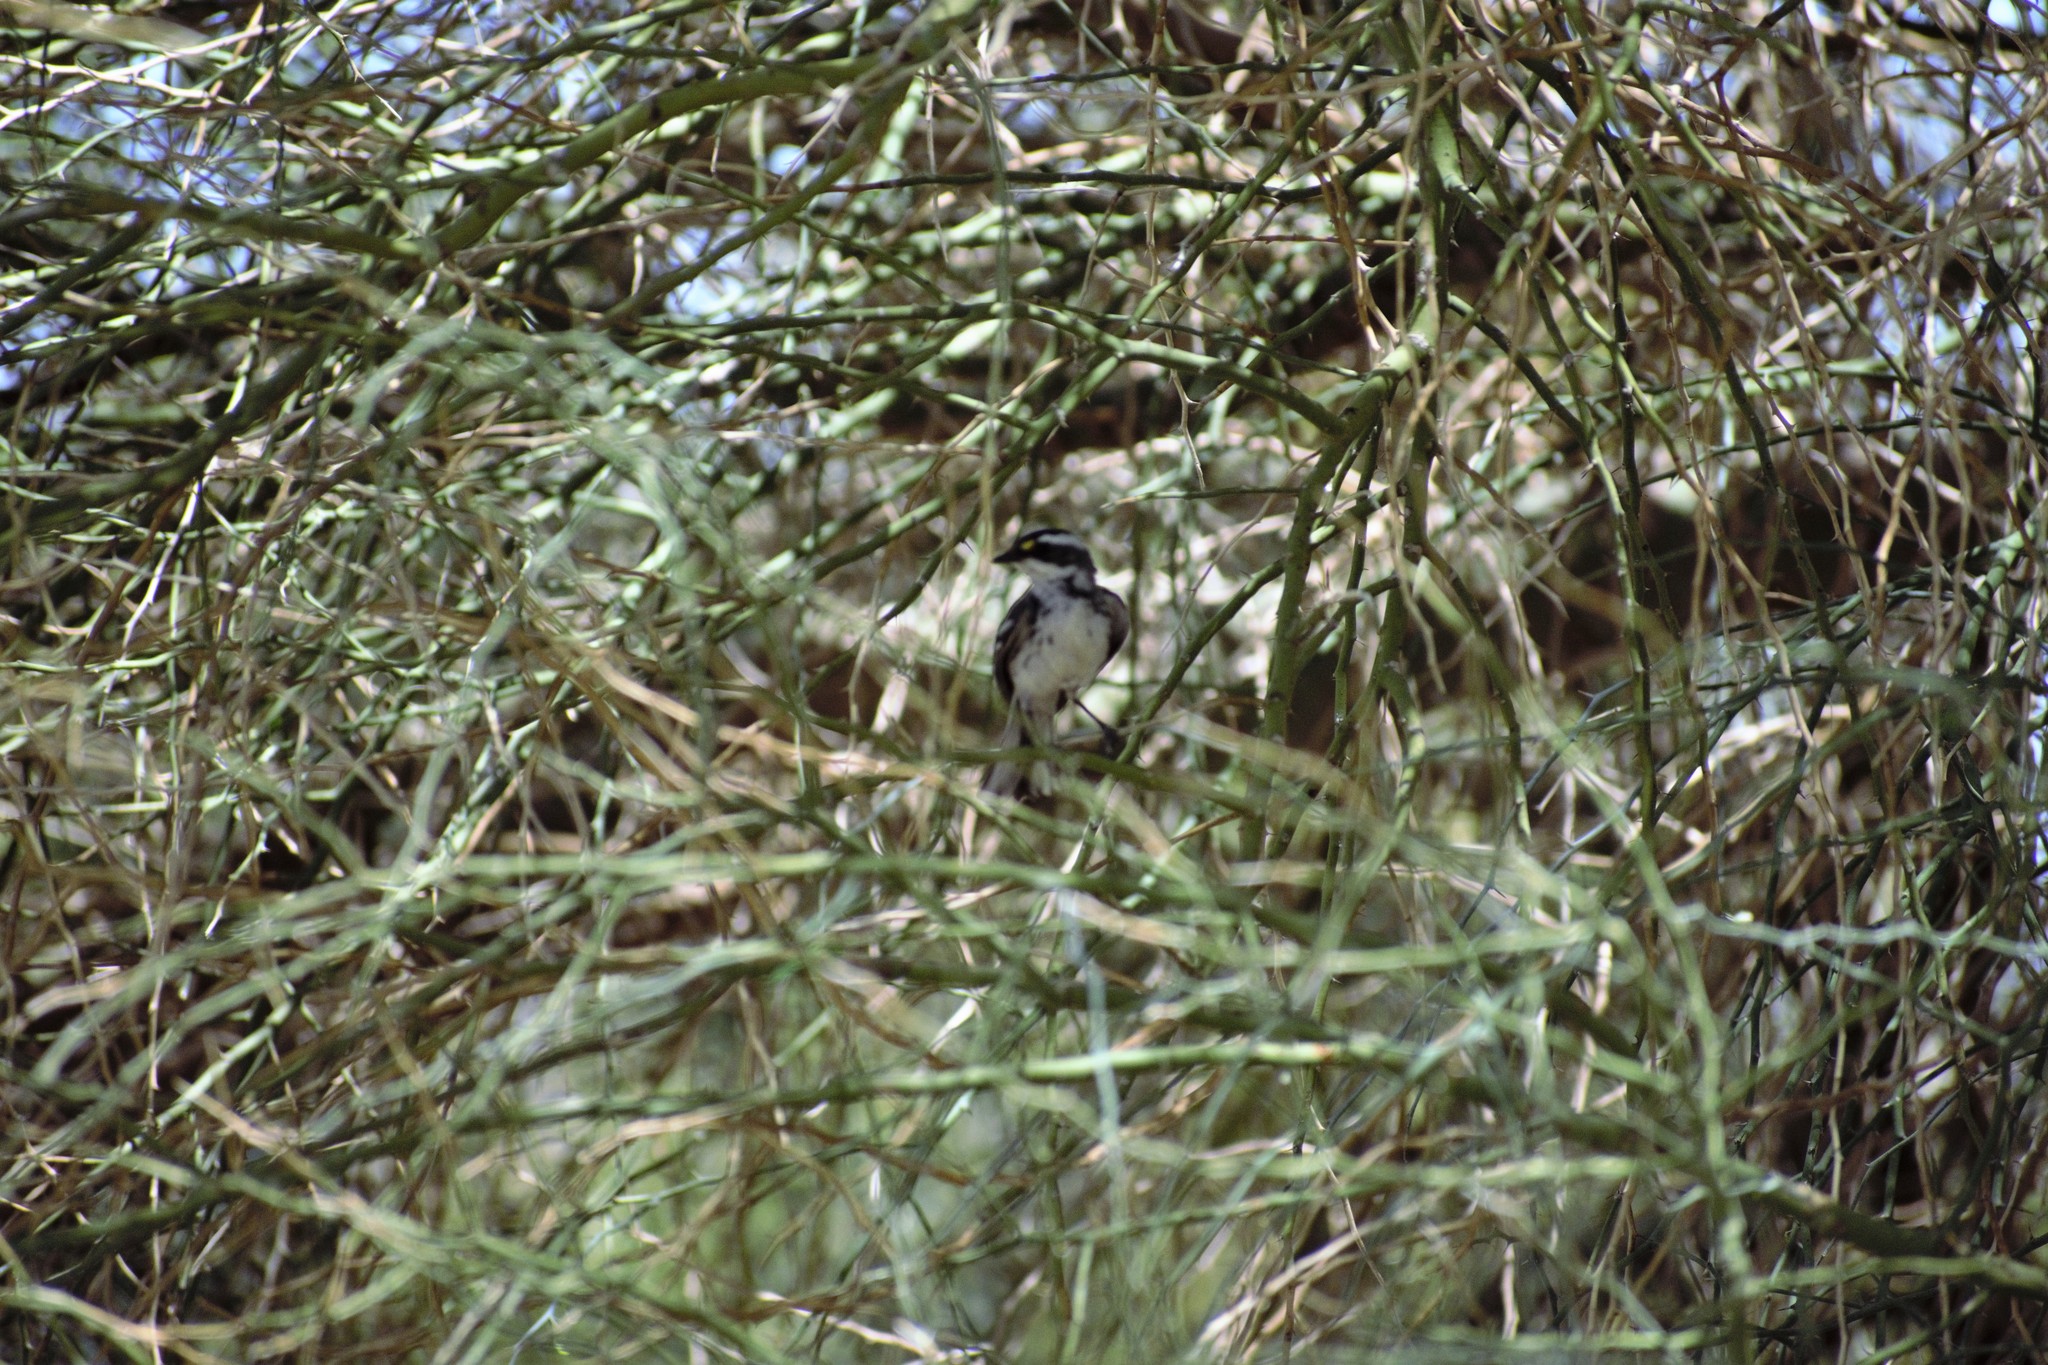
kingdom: Animalia
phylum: Chordata
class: Aves
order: Passeriformes
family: Parulidae
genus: Setophaga
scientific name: Setophaga nigrescens
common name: Black-throated gray warbler
